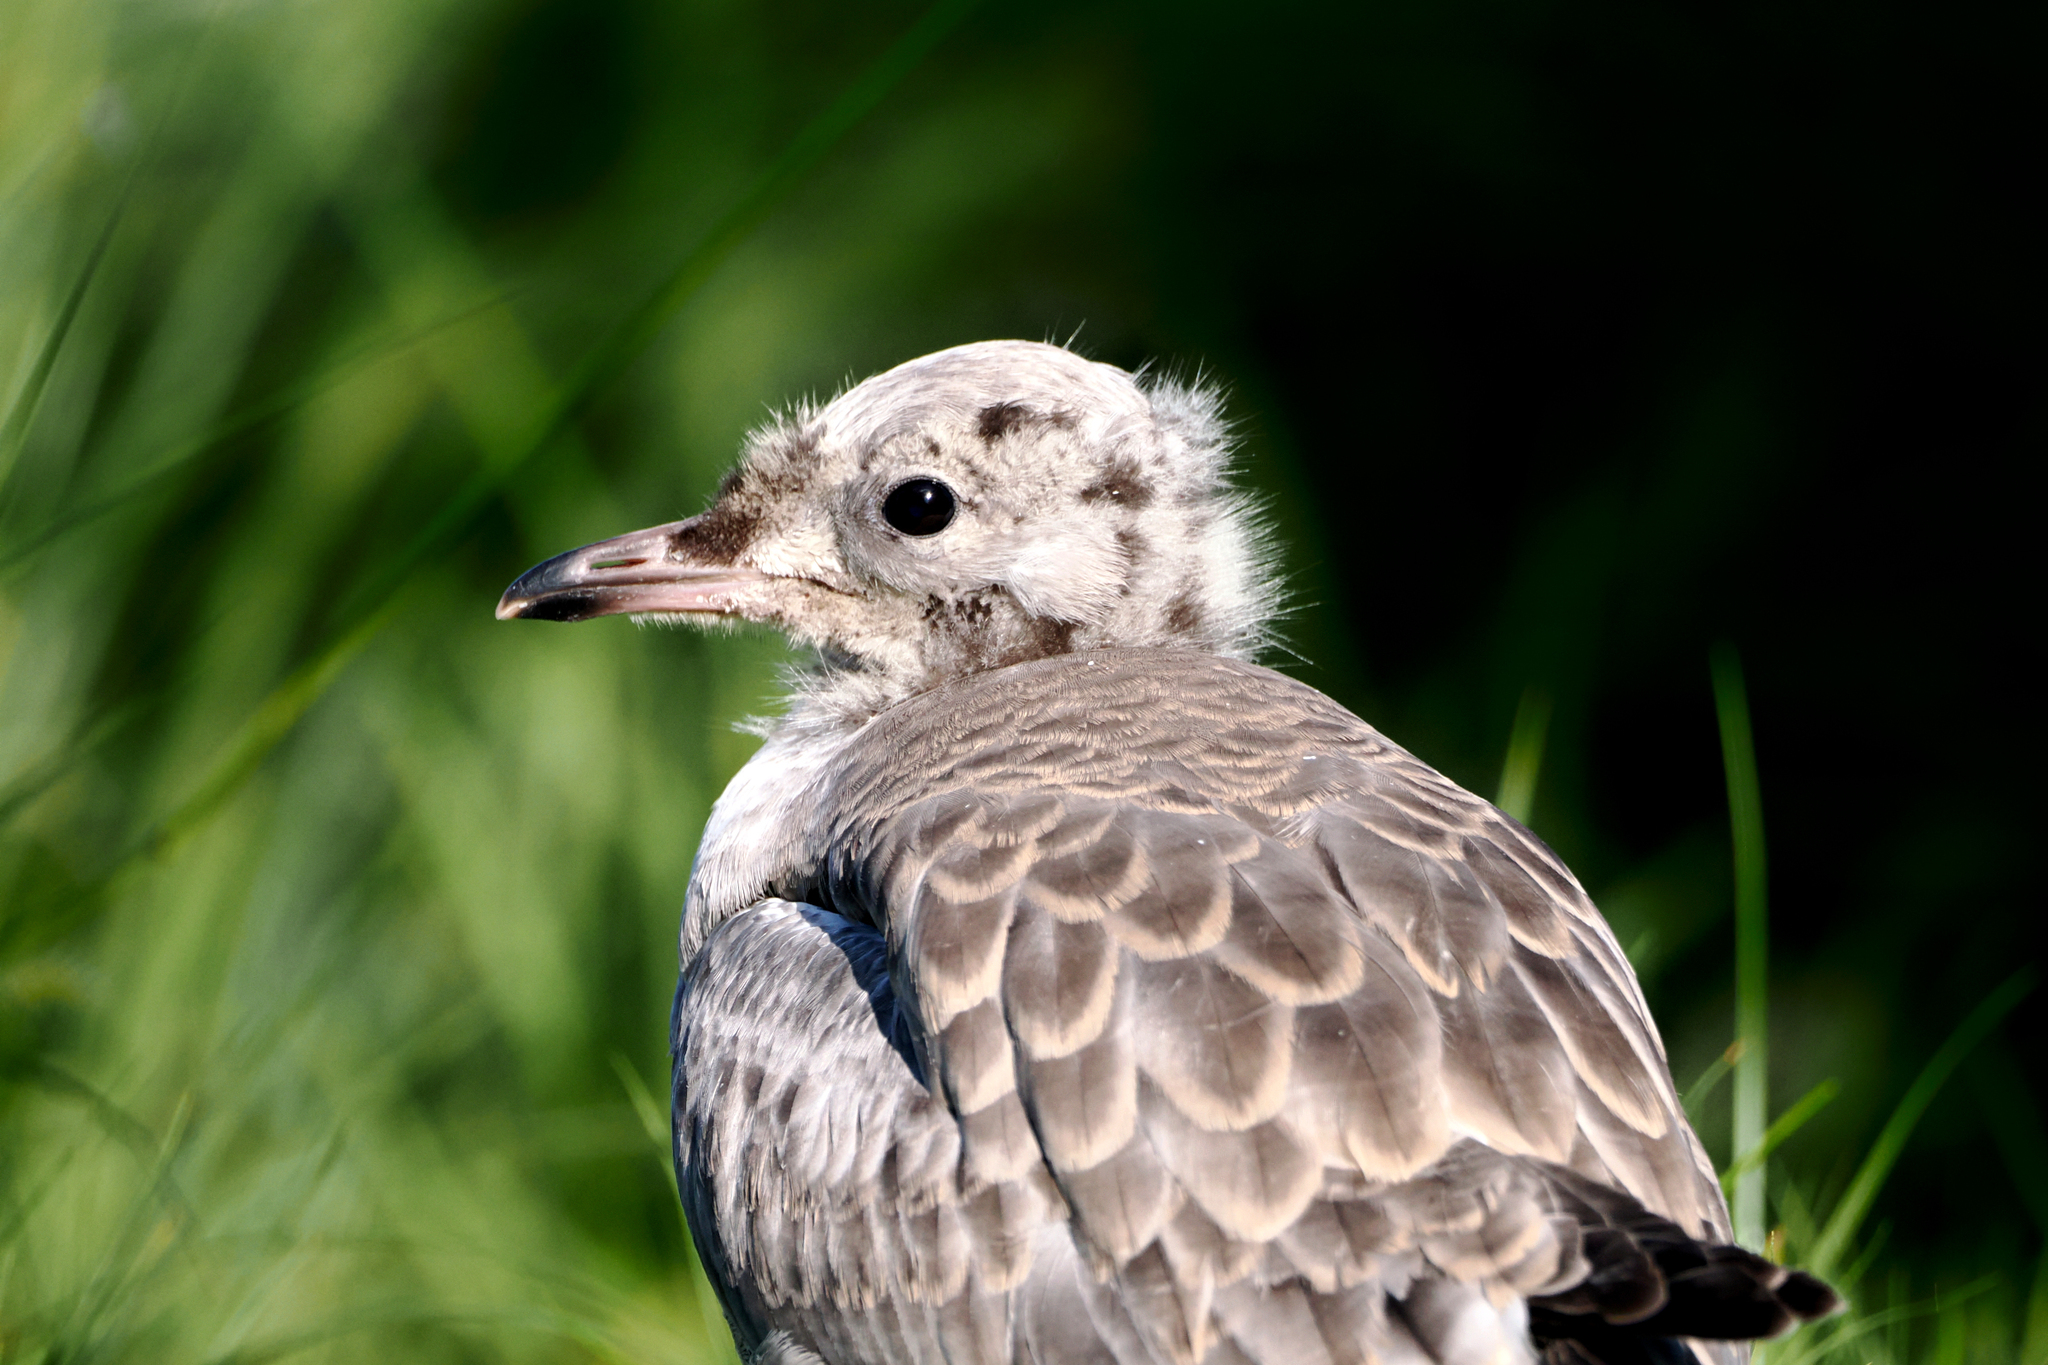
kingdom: Animalia
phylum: Chordata
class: Aves
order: Charadriiformes
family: Laridae
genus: Larus
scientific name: Larus canus
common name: Mew gull
